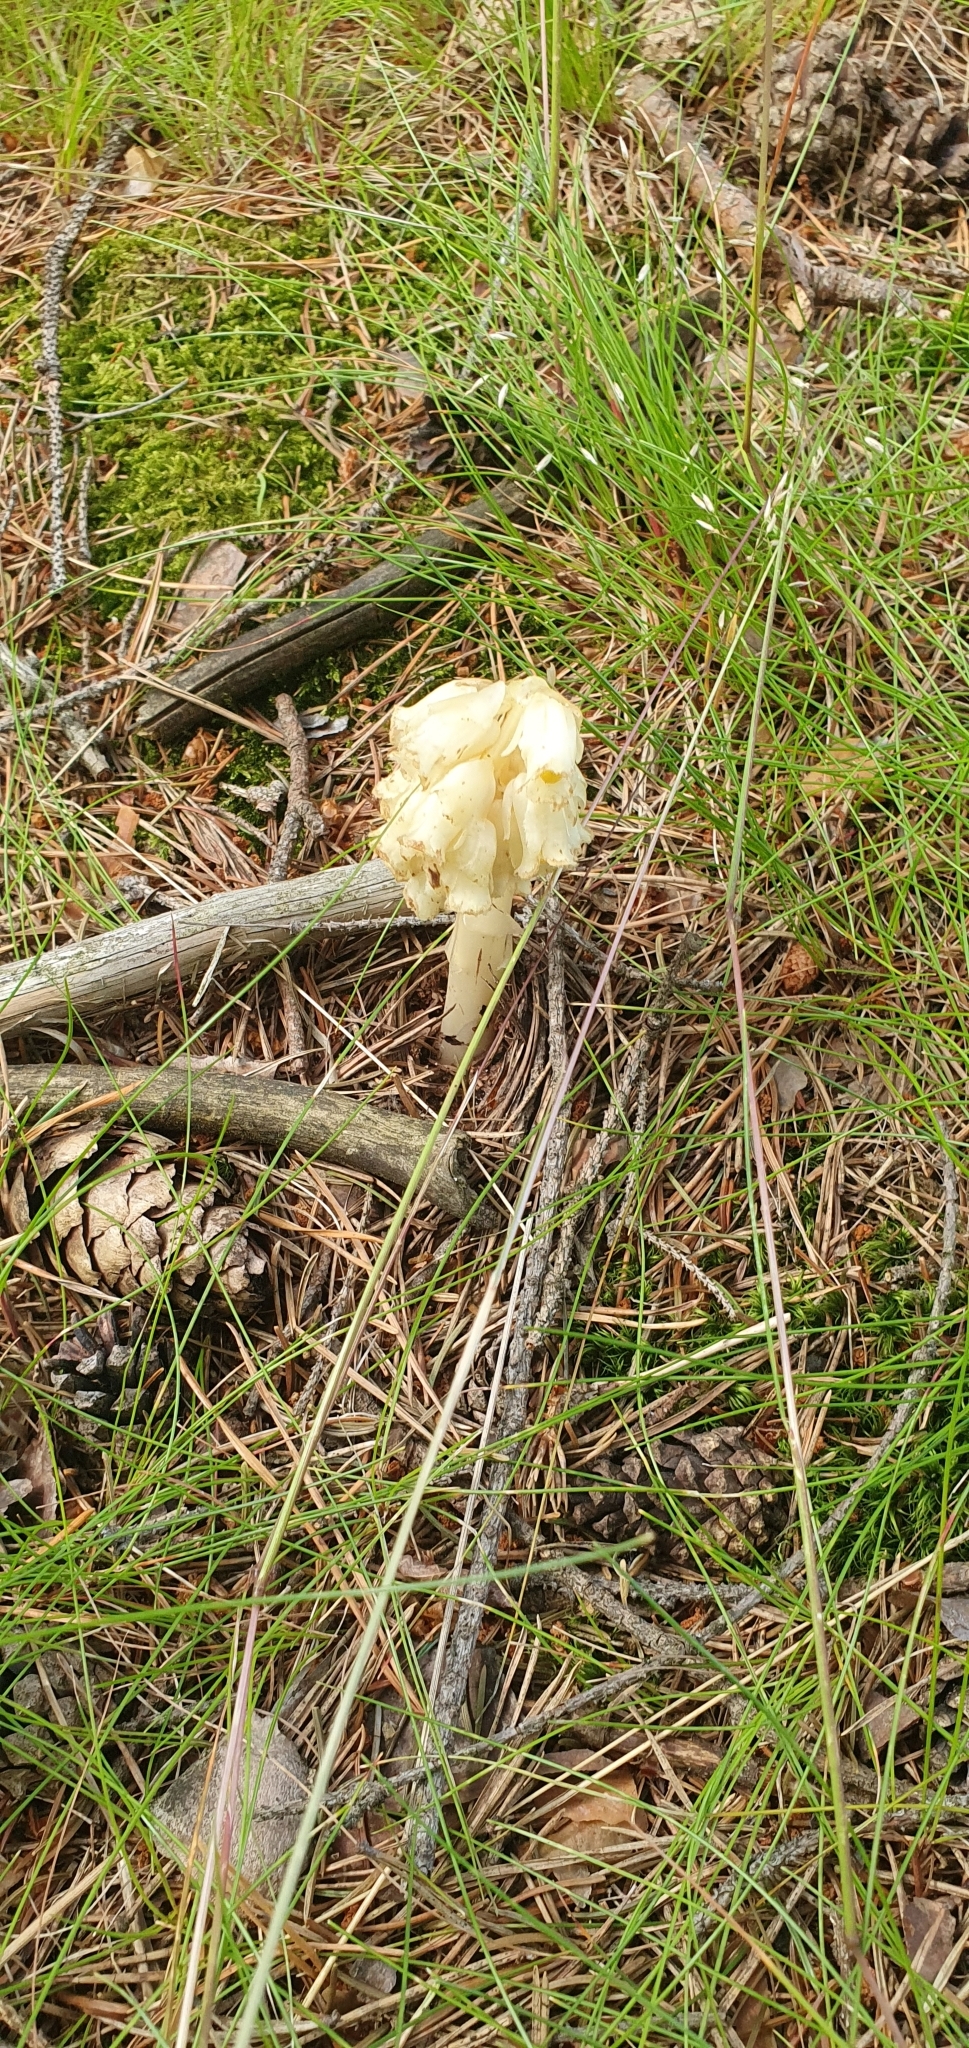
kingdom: Plantae
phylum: Tracheophyta
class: Magnoliopsida
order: Ericales
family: Ericaceae
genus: Hypopitys
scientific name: Hypopitys monotropa
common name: Yellow bird's-nest
